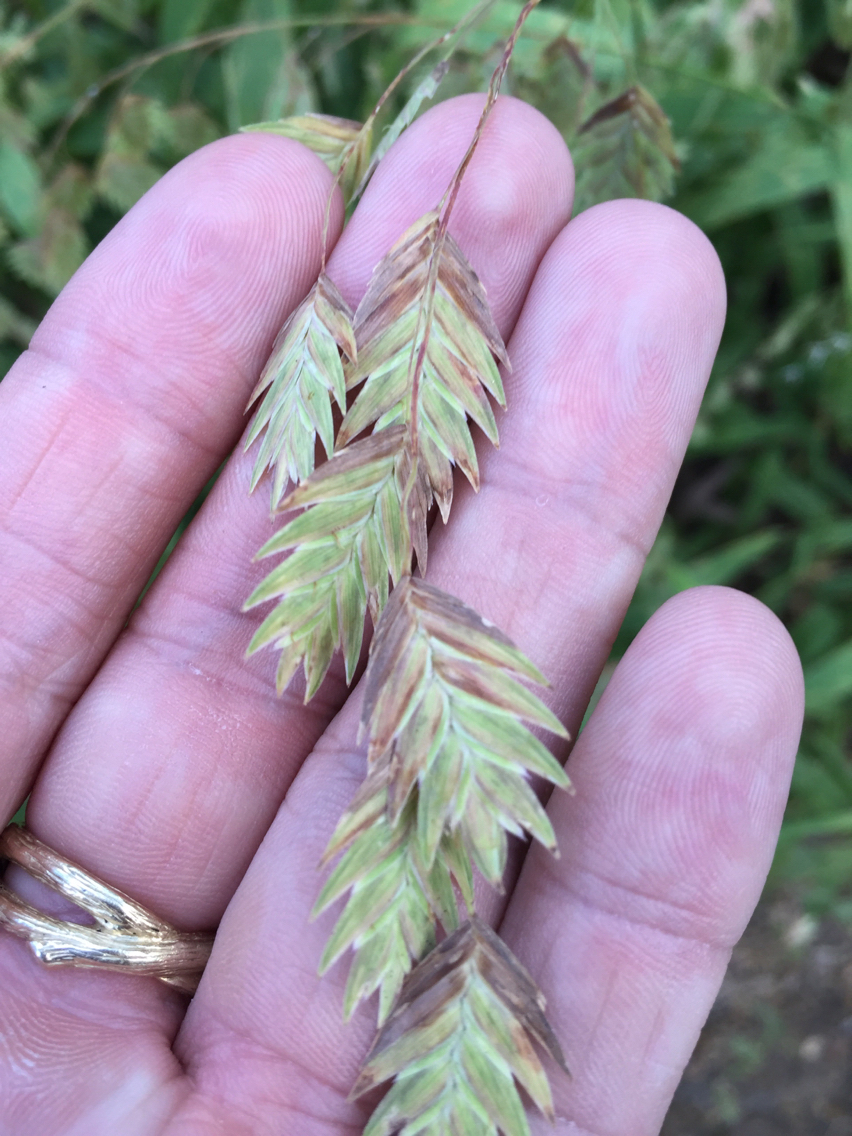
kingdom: Plantae
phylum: Tracheophyta
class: Liliopsida
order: Poales
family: Poaceae
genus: Chasmanthium
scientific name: Chasmanthium latifolium
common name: Broad-leaved chasmanthium
